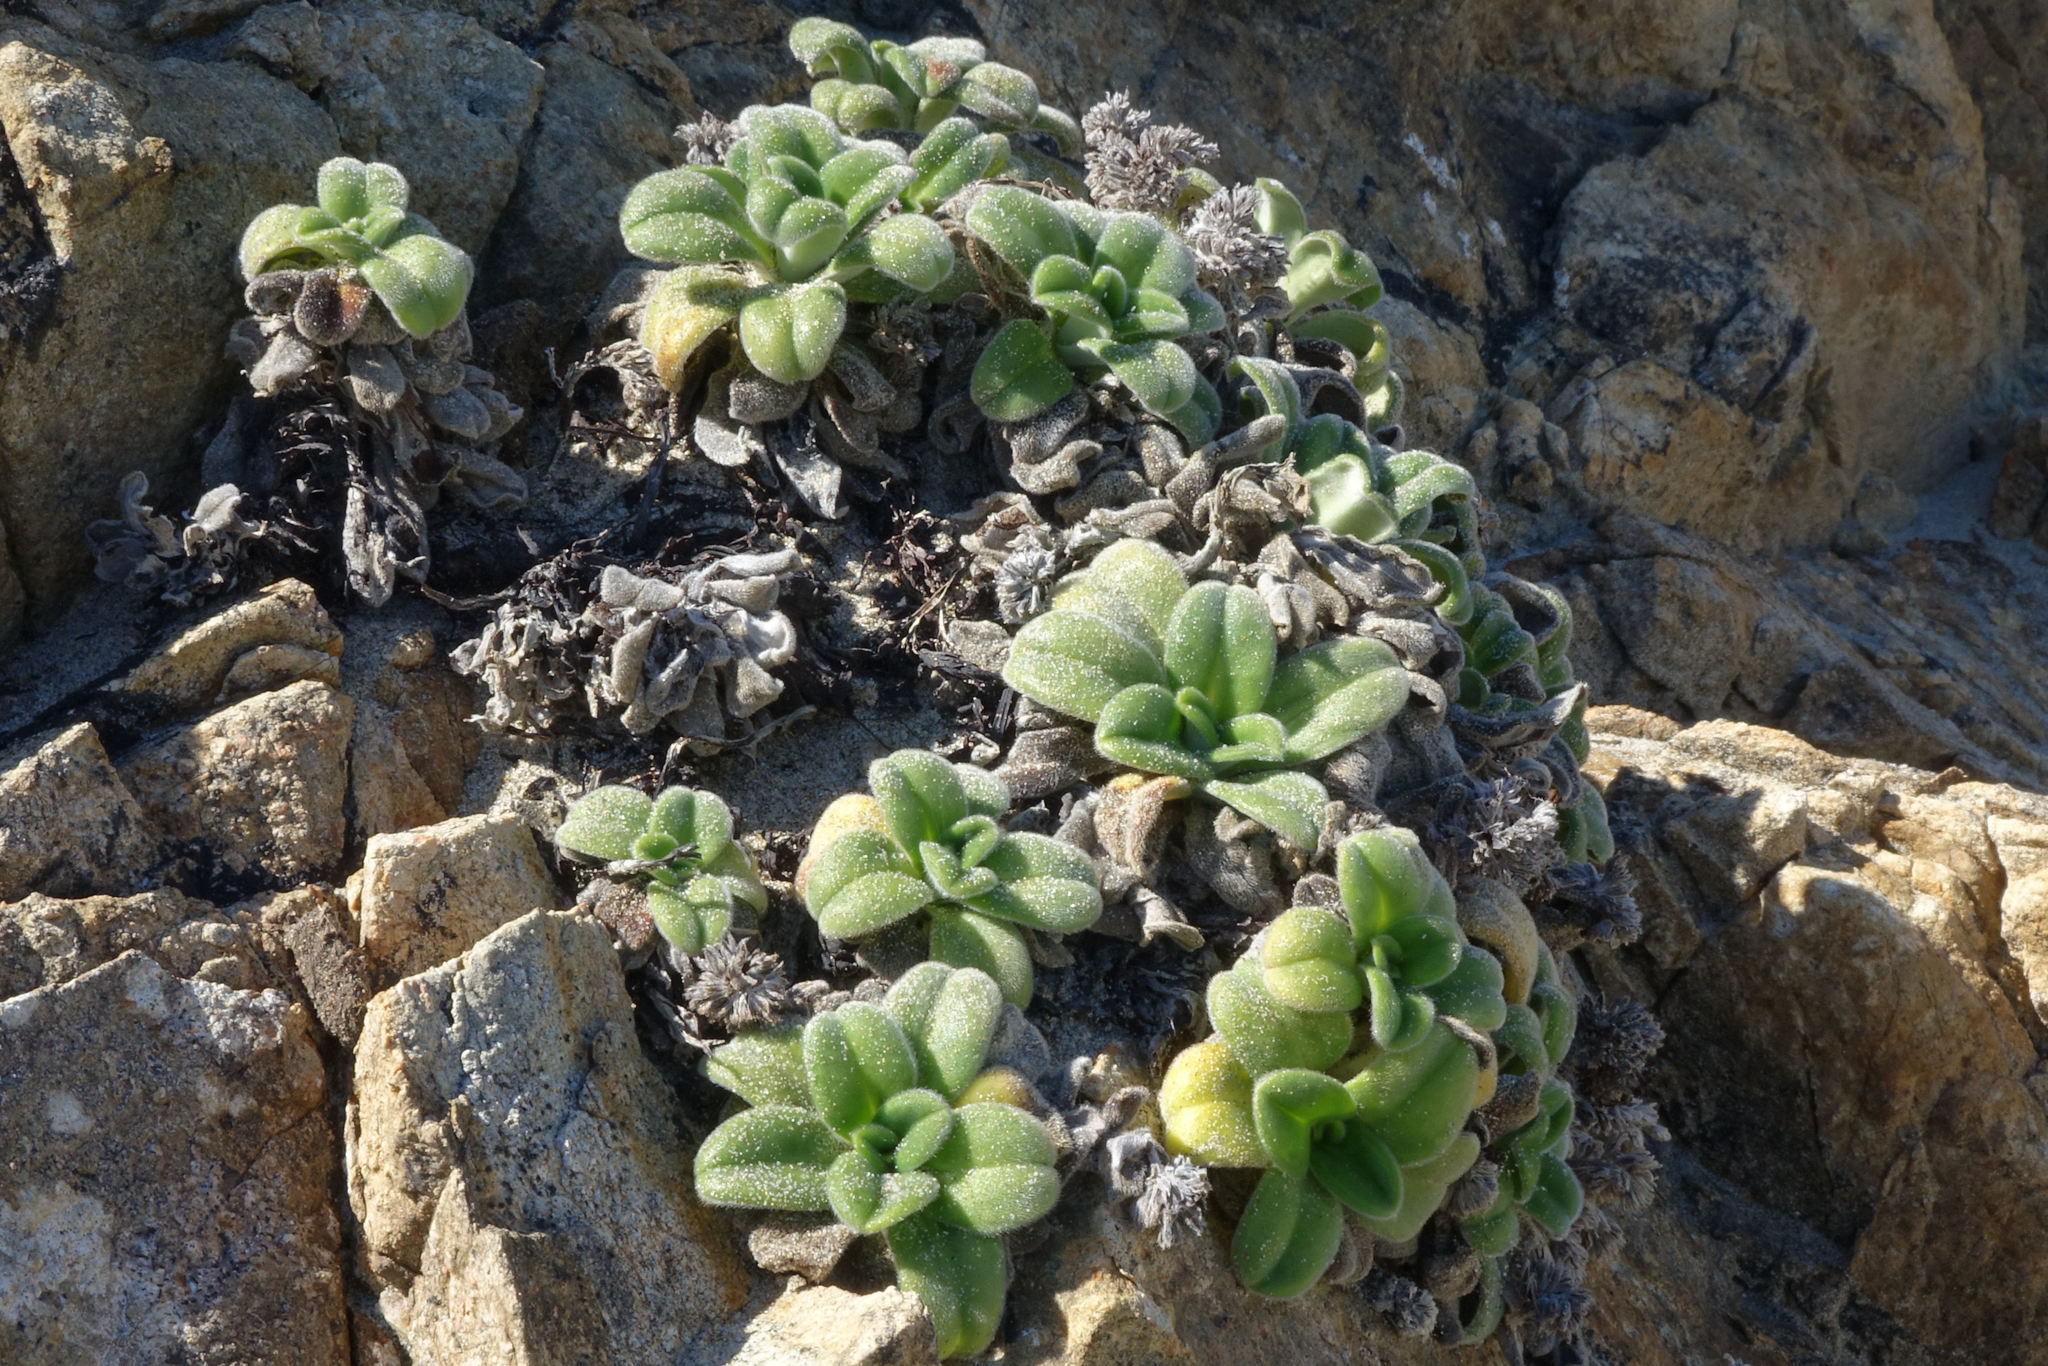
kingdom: Plantae
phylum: Tracheophyta
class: Magnoliopsida
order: Boraginales
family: Boraginaceae
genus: Myosotis
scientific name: Myosotis rakiura
